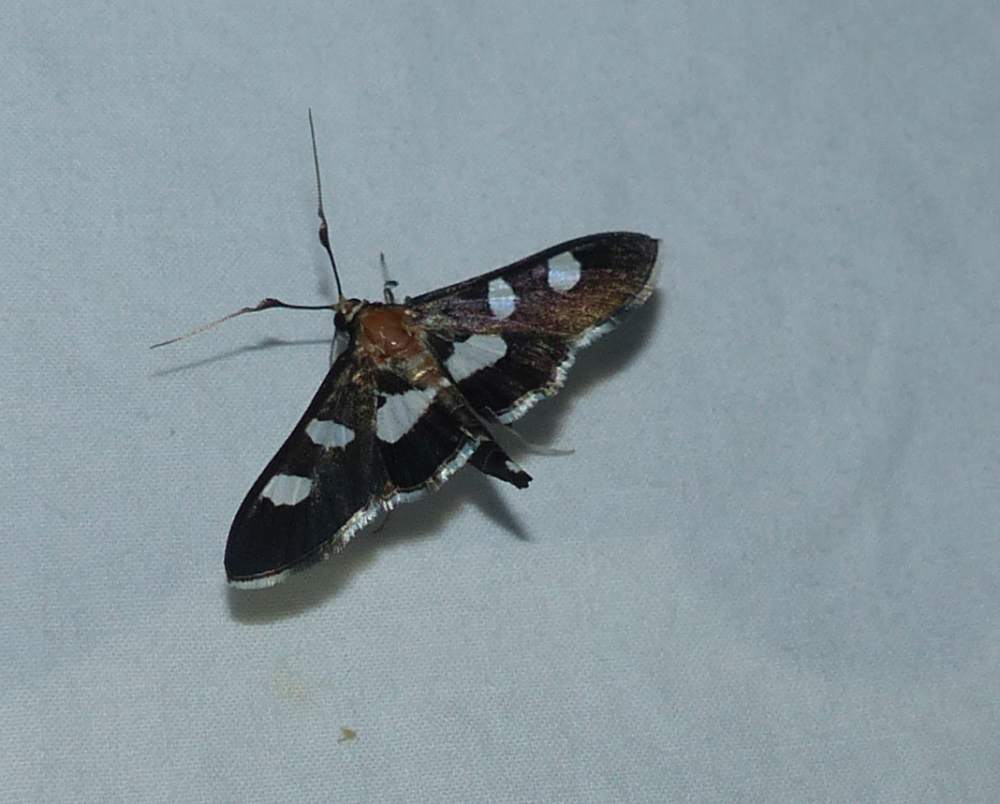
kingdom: Animalia
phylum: Arthropoda
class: Insecta
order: Lepidoptera
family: Crambidae
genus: Desmia
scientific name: Desmia
